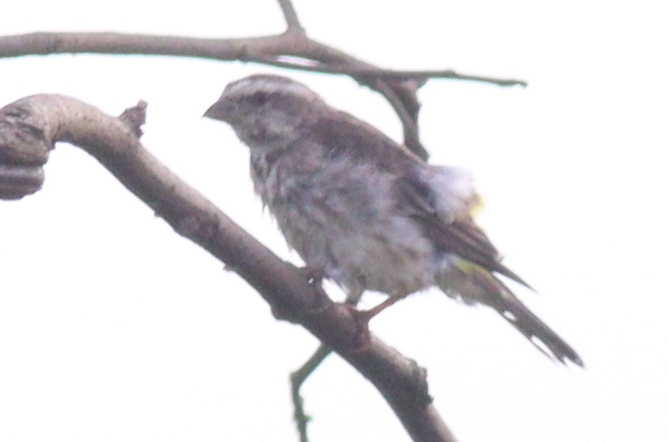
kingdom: Animalia
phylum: Chordata
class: Aves
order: Passeriformes
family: Fringillidae
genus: Crithagra
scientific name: Crithagra reichenowi
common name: Reichenow's seedeater
